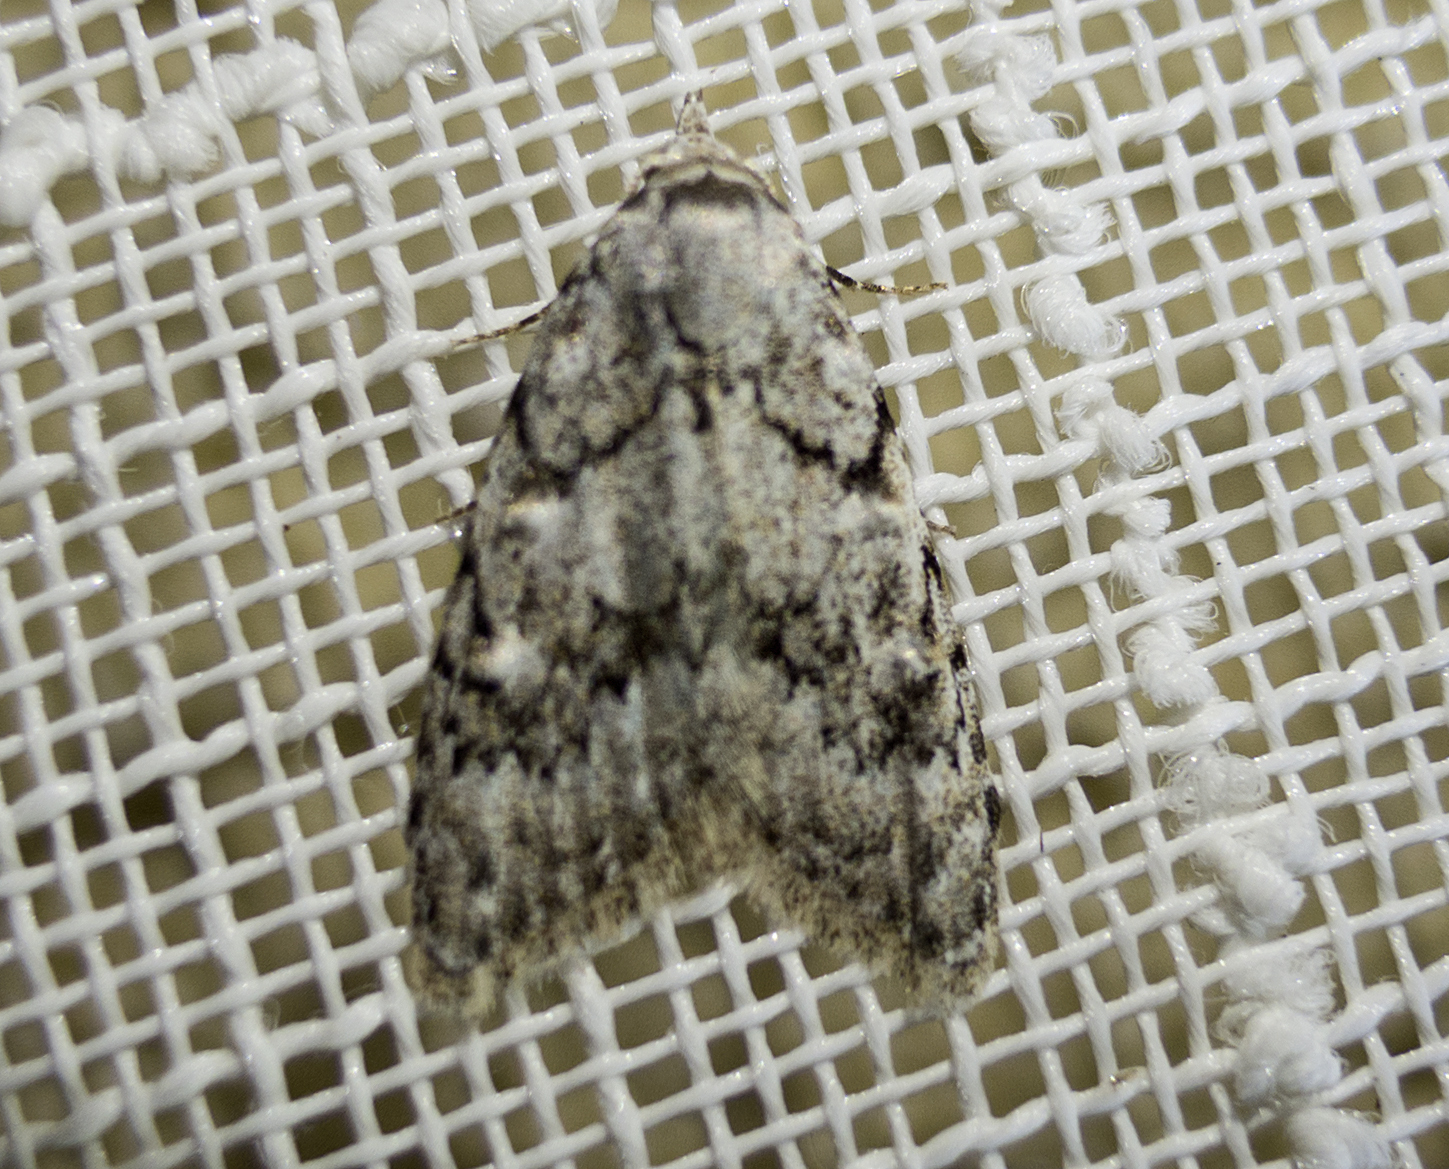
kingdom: Animalia
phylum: Arthropoda
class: Insecta
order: Lepidoptera
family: Nolidae
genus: Nola
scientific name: Nola cicatricalis
